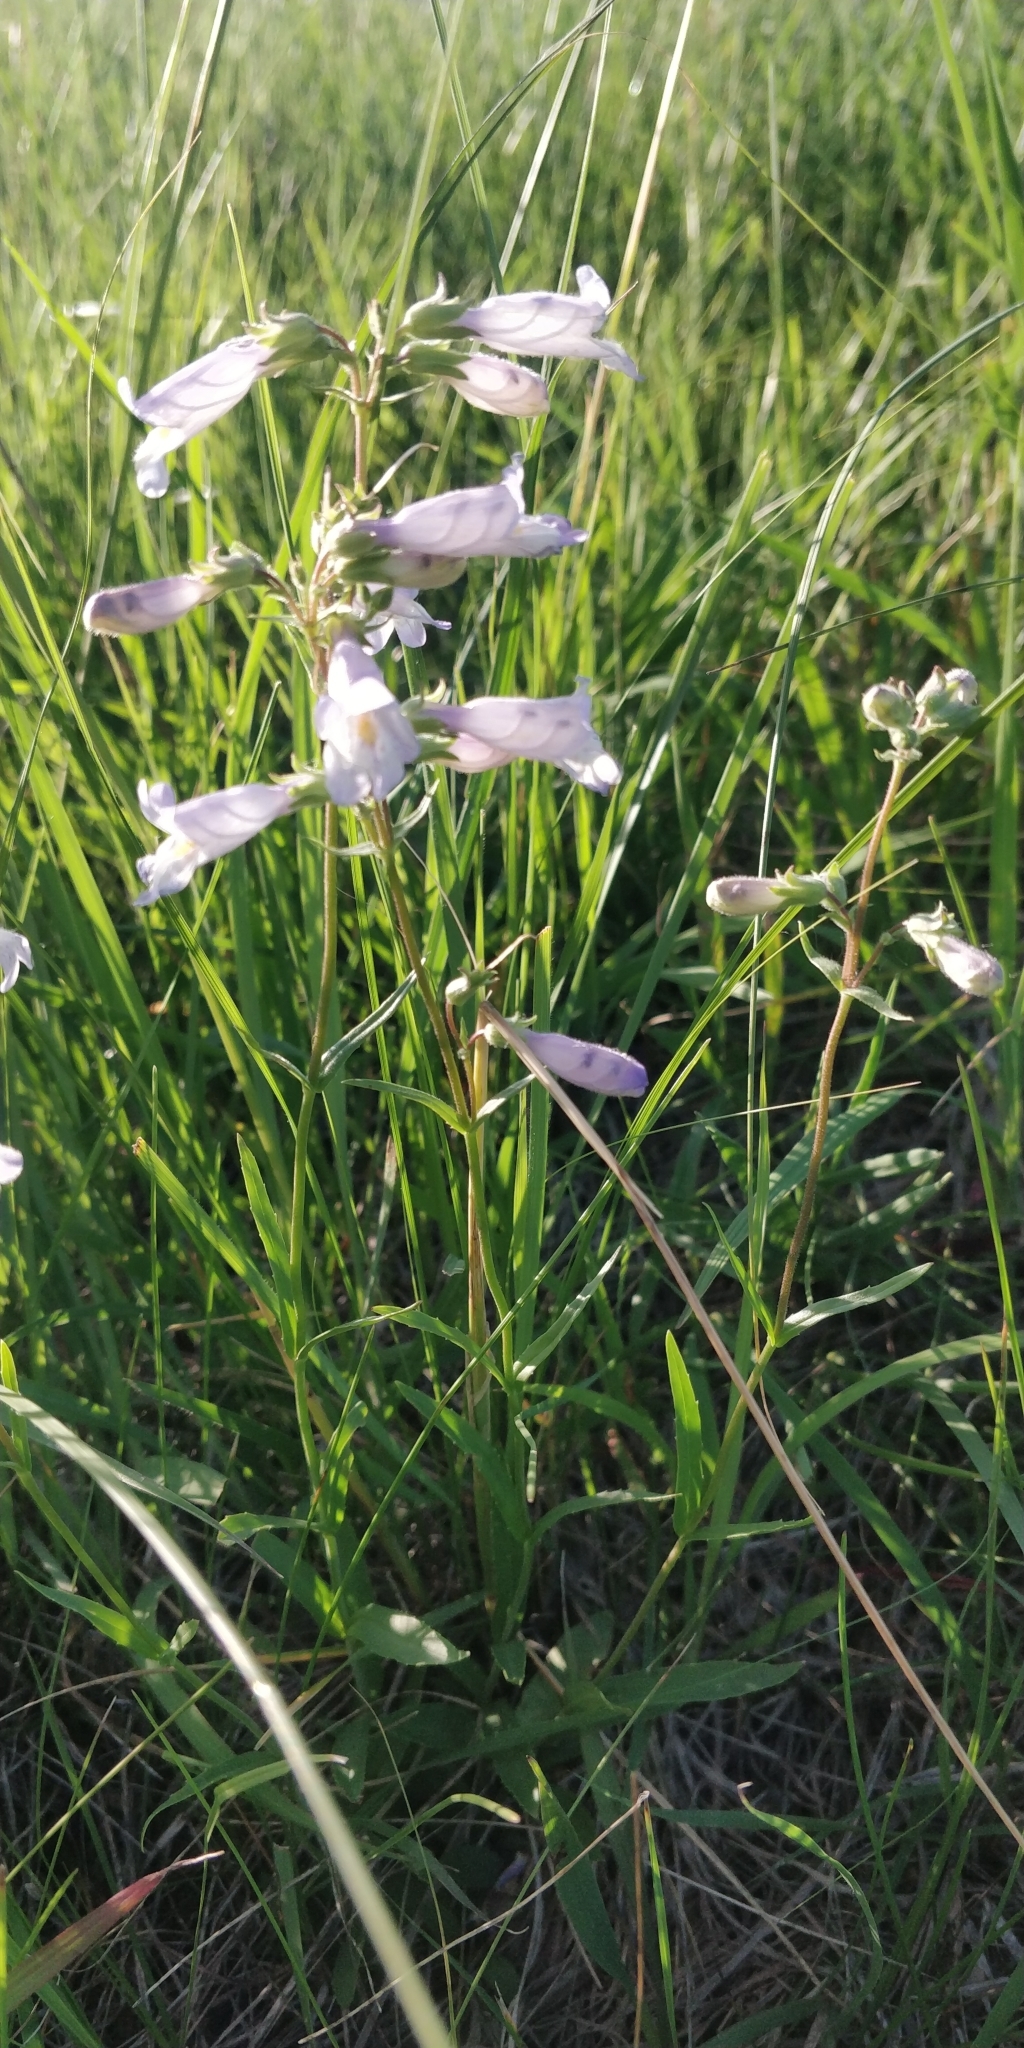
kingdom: Plantae
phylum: Tracheophyta
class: Magnoliopsida
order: Lamiales
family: Plantaginaceae
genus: Penstemon
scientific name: Penstemon gracilis
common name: Slender beardtongue
